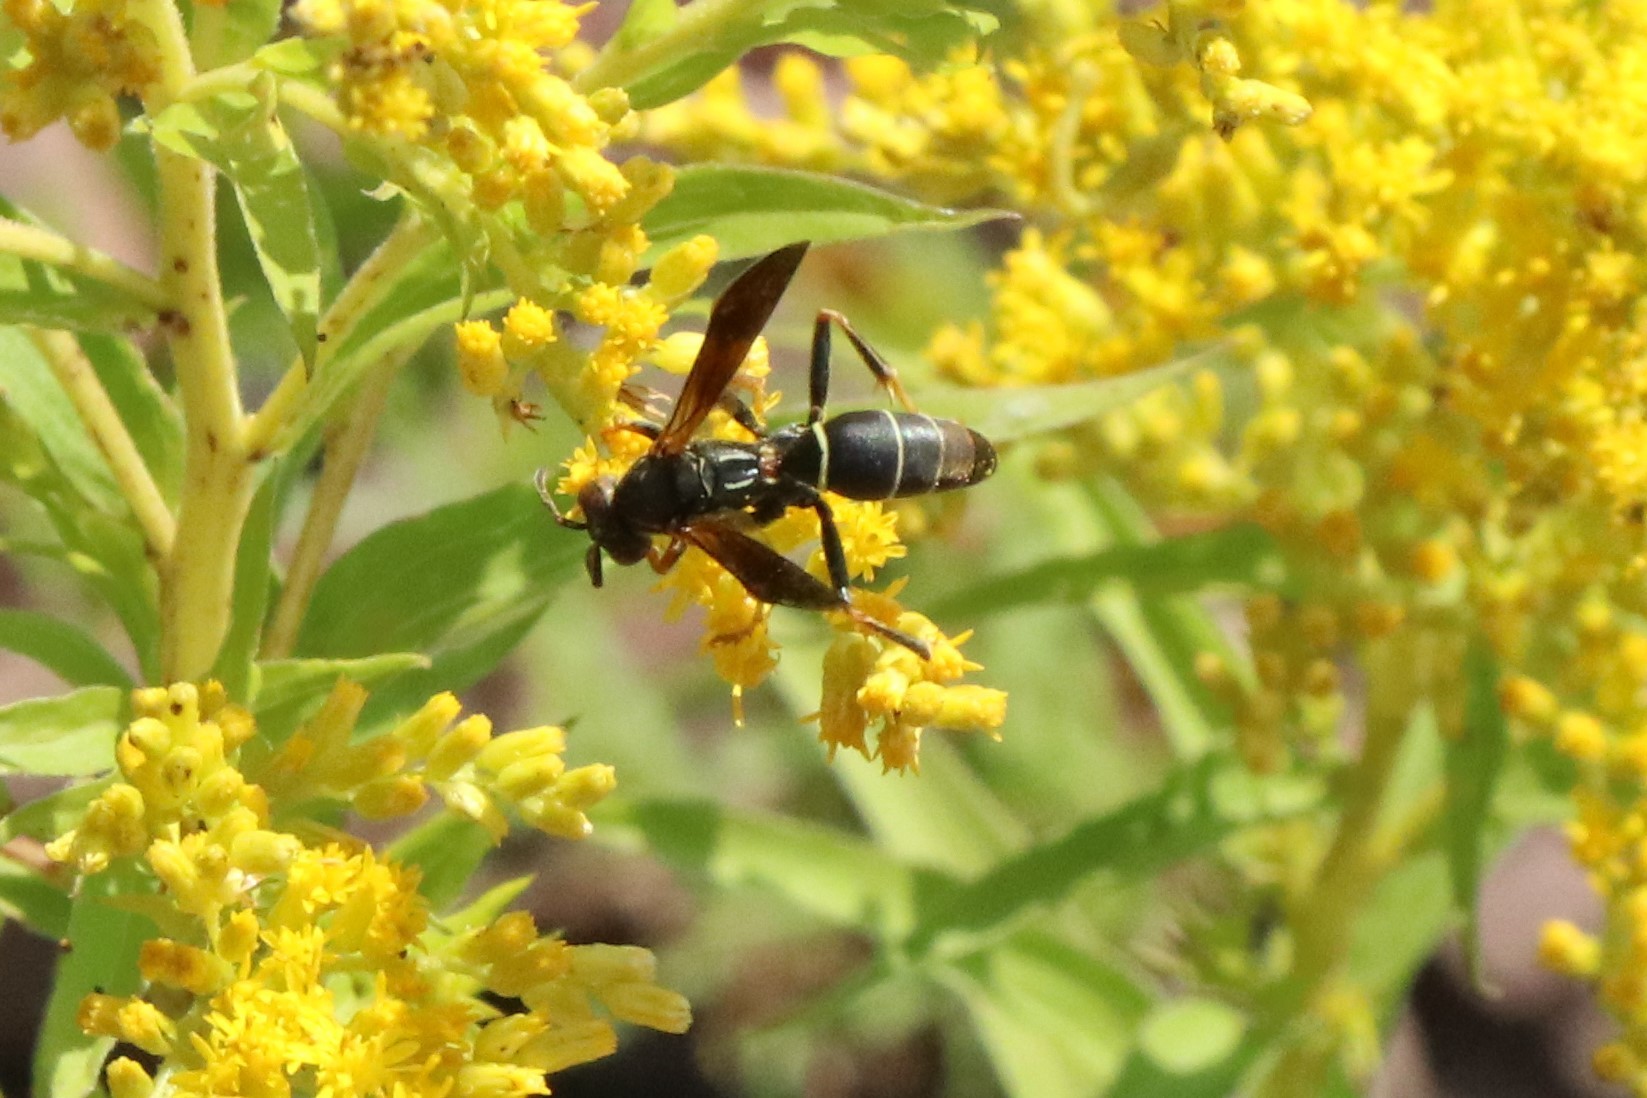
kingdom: Animalia
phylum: Arthropoda
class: Insecta
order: Hymenoptera
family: Eumenidae
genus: Polistes
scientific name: Polistes fuscatus
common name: Dark paper wasp
